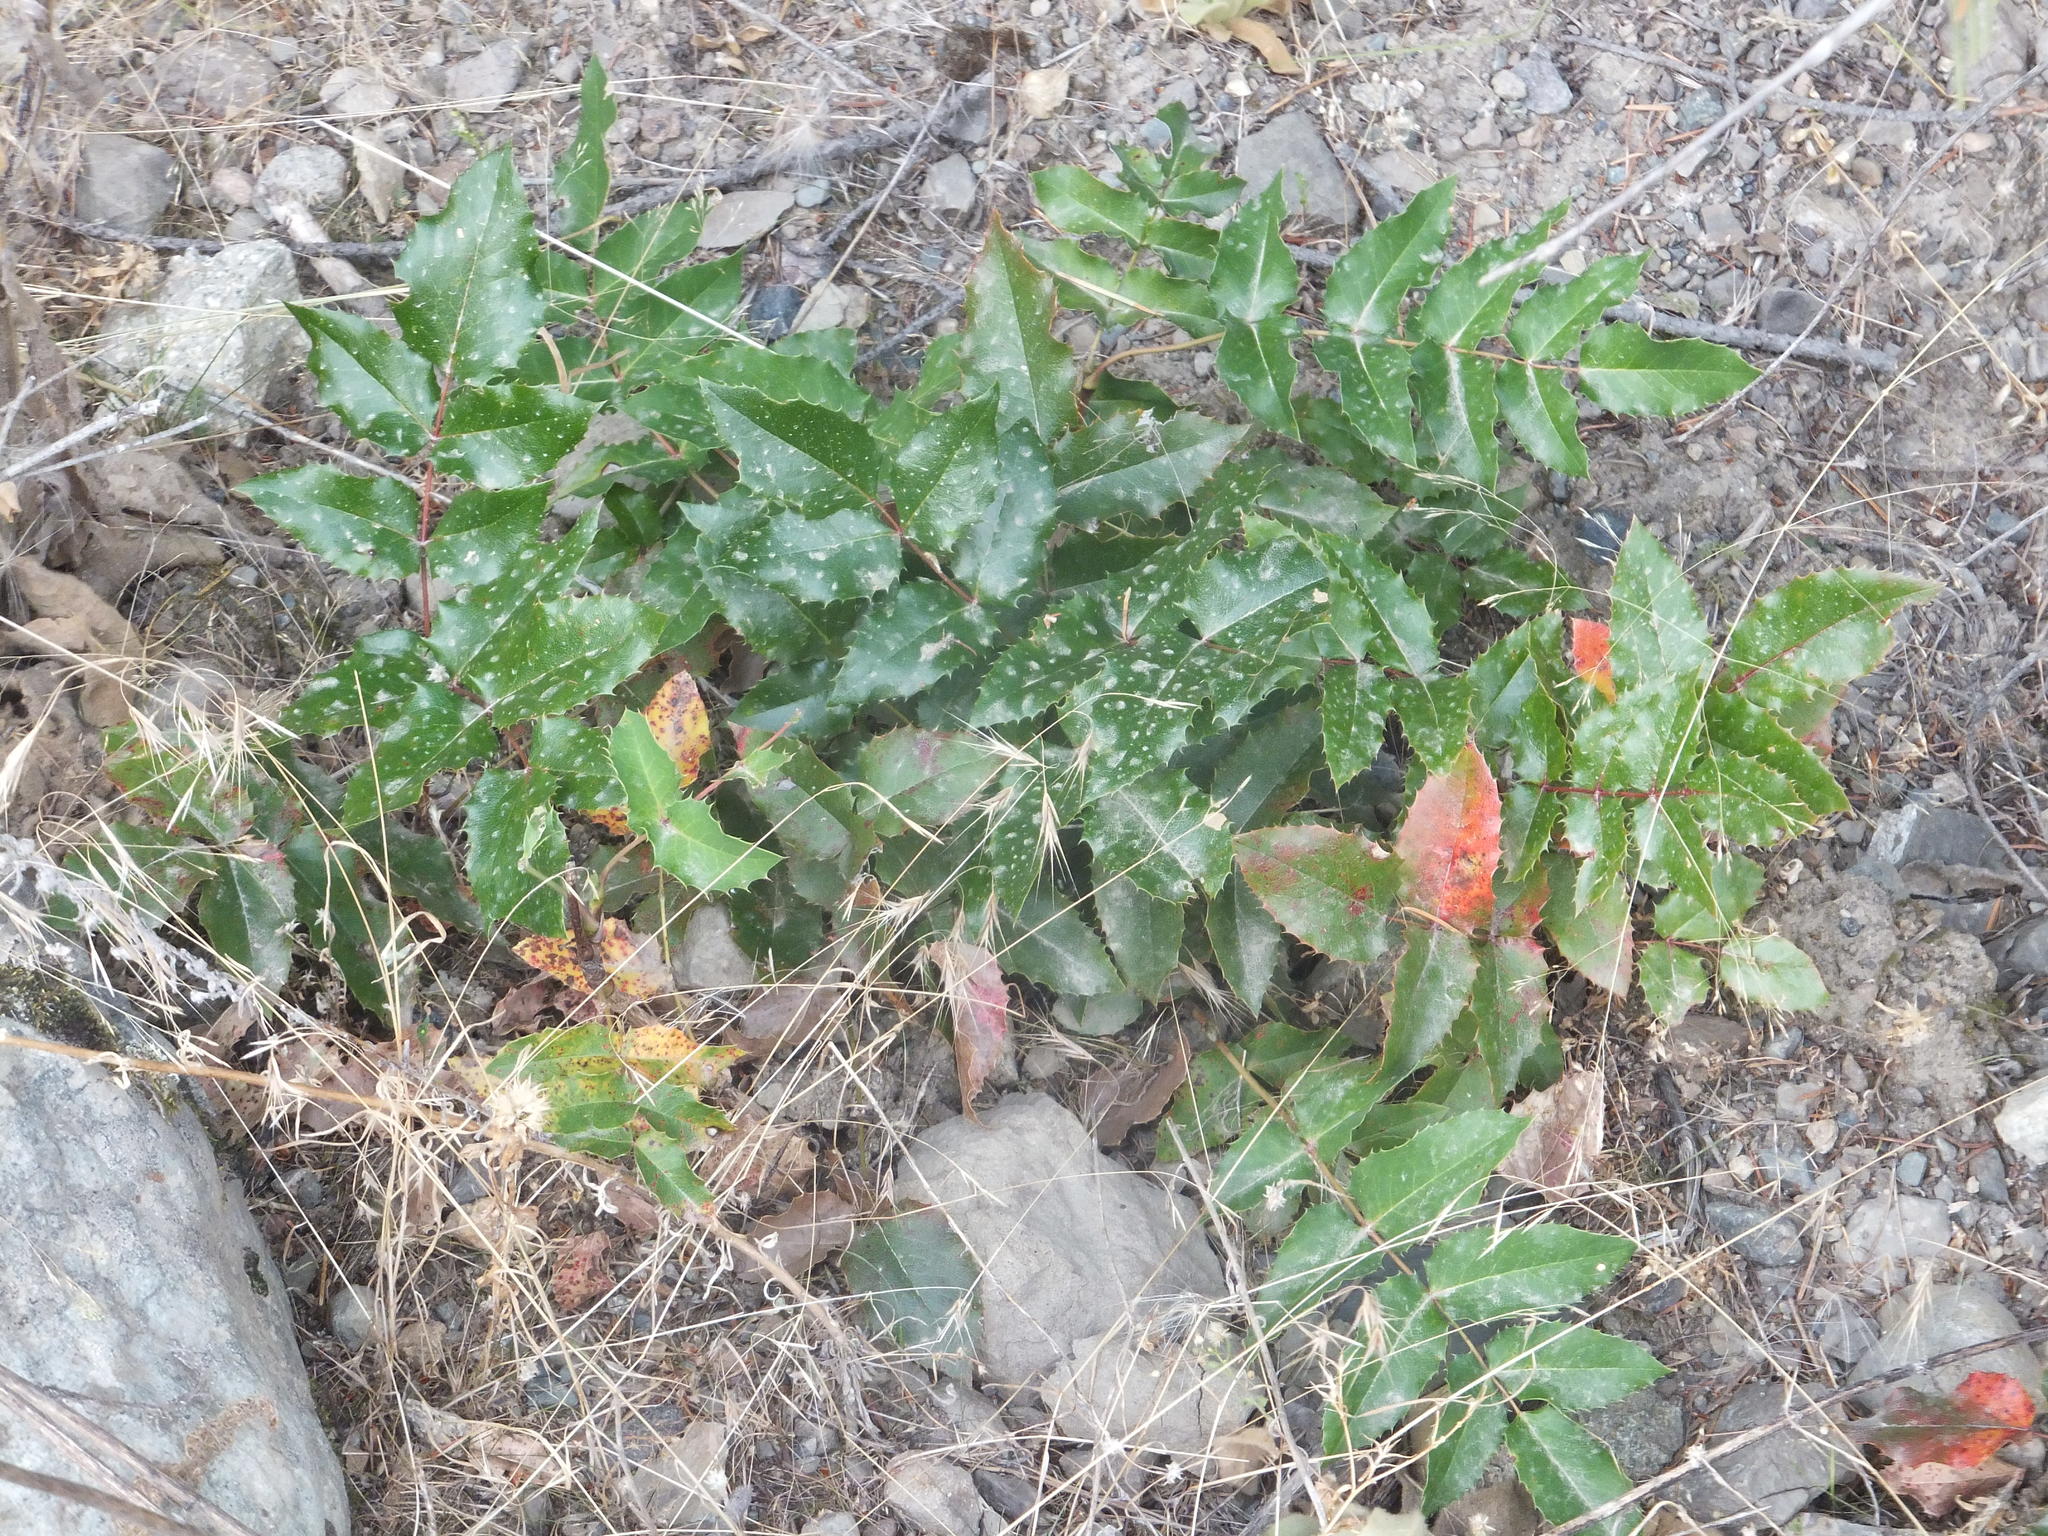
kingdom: Plantae
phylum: Tracheophyta
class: Magnoliopsida
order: Ranunculales
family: Berberidaceae
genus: Mahonia
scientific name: Mahonia aquifolium
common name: Oregon-grape
